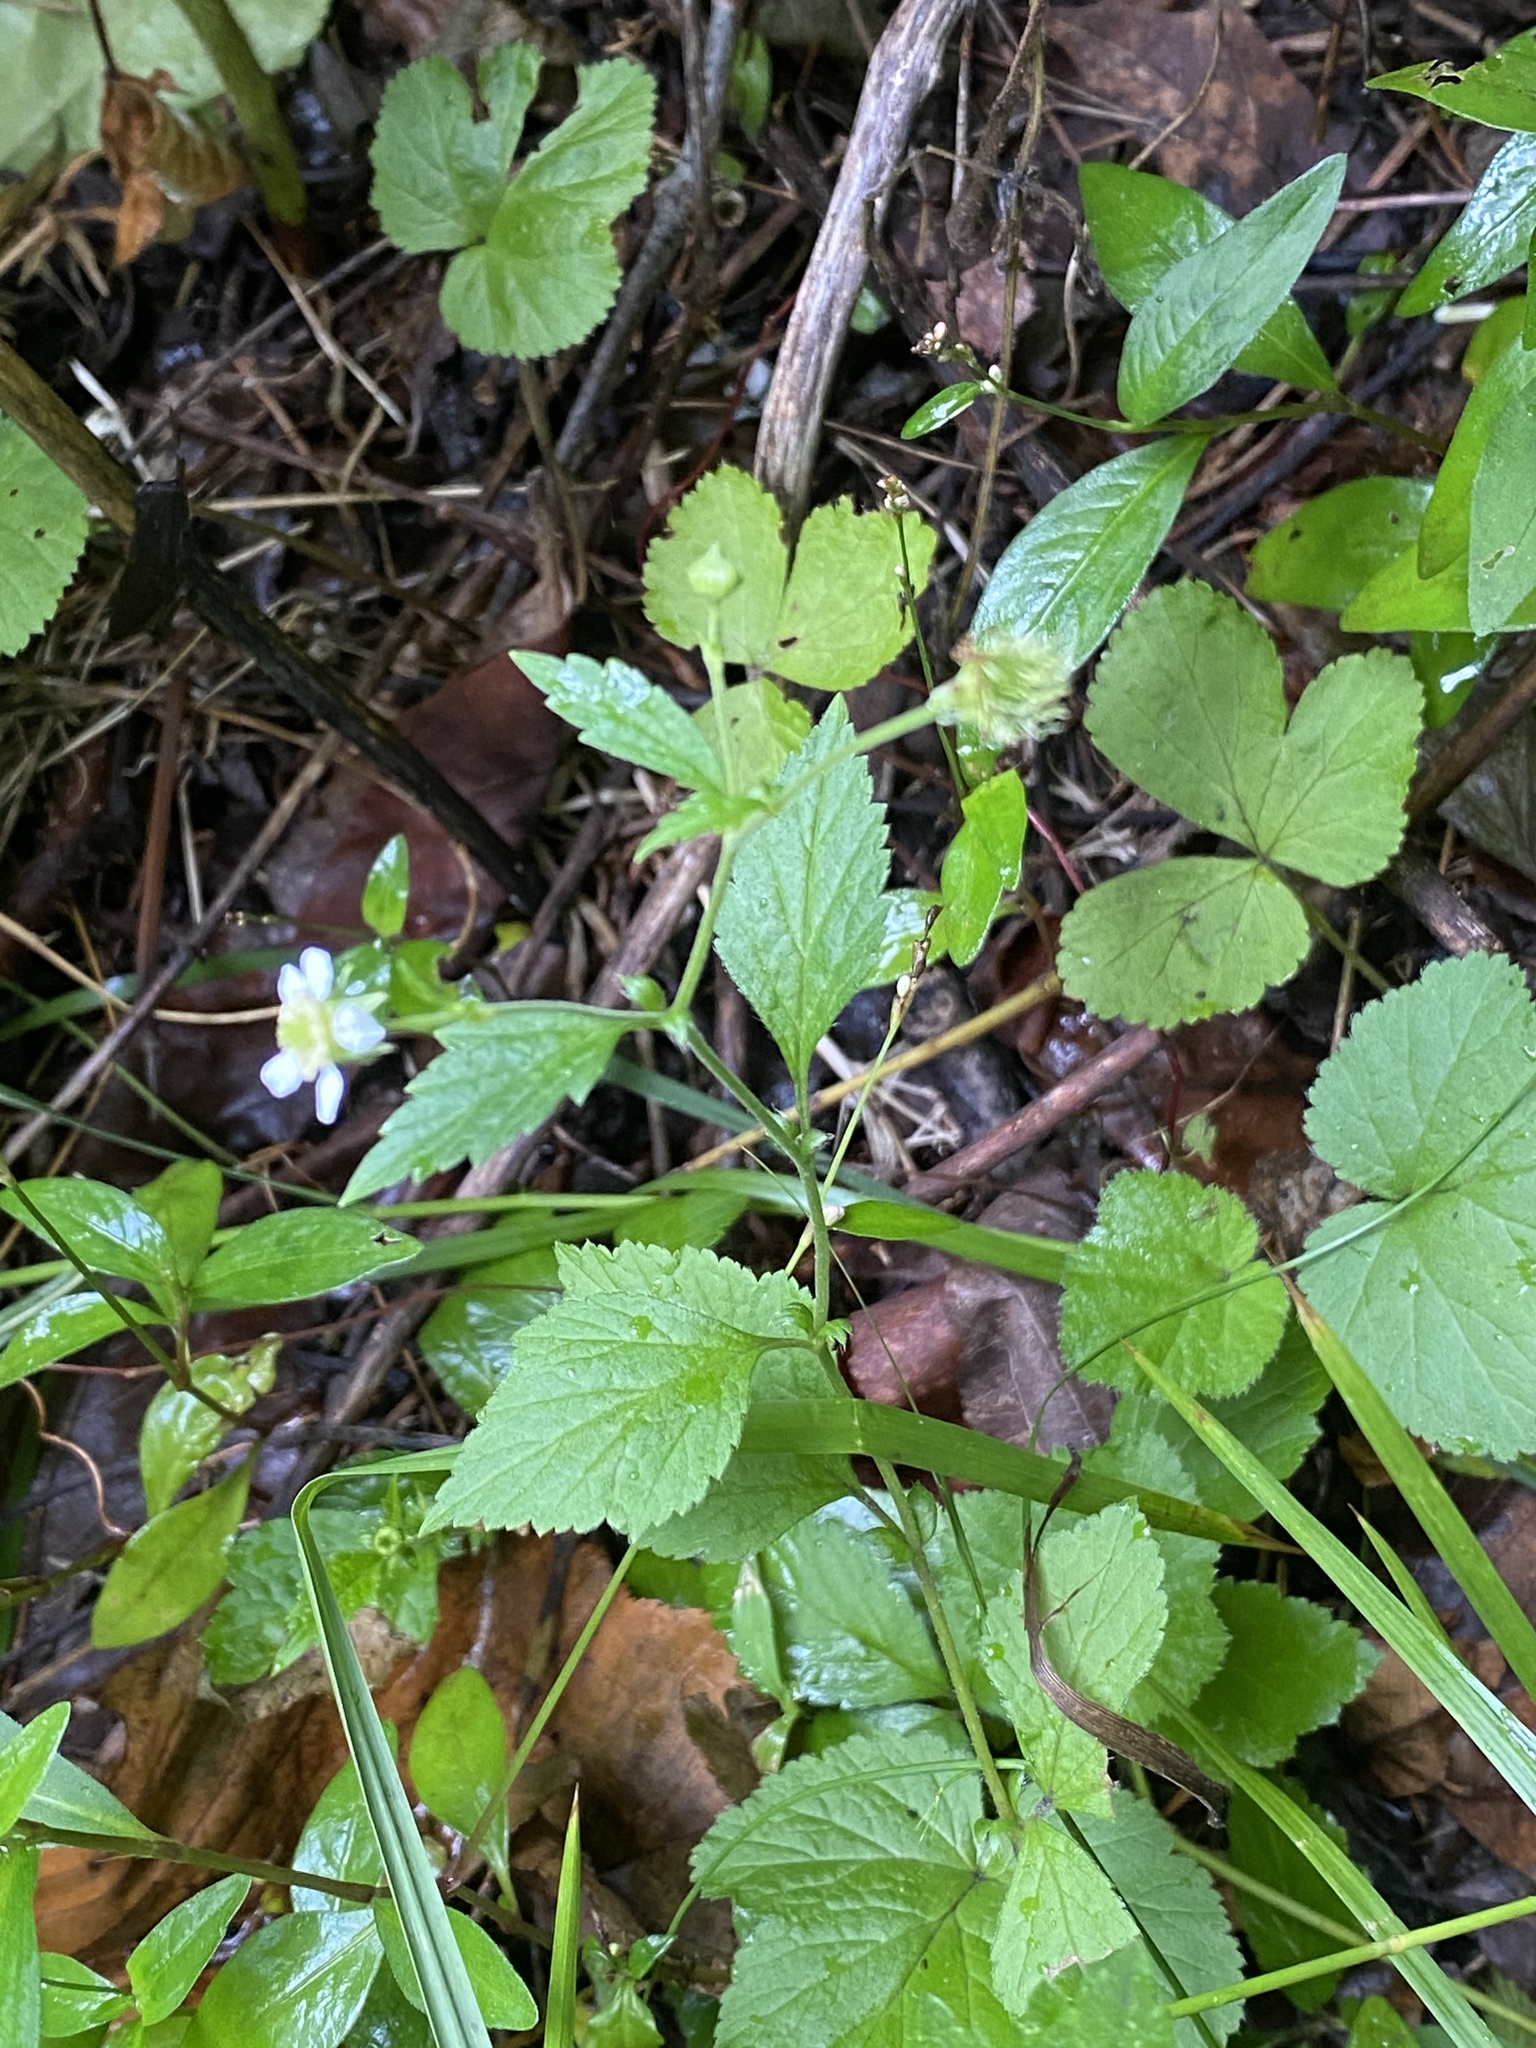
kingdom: Plantae
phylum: Tracheophyta
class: Magnoliopsida
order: Rosales
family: Rosaceae
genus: Geum
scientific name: Geum canadense
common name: White avens
